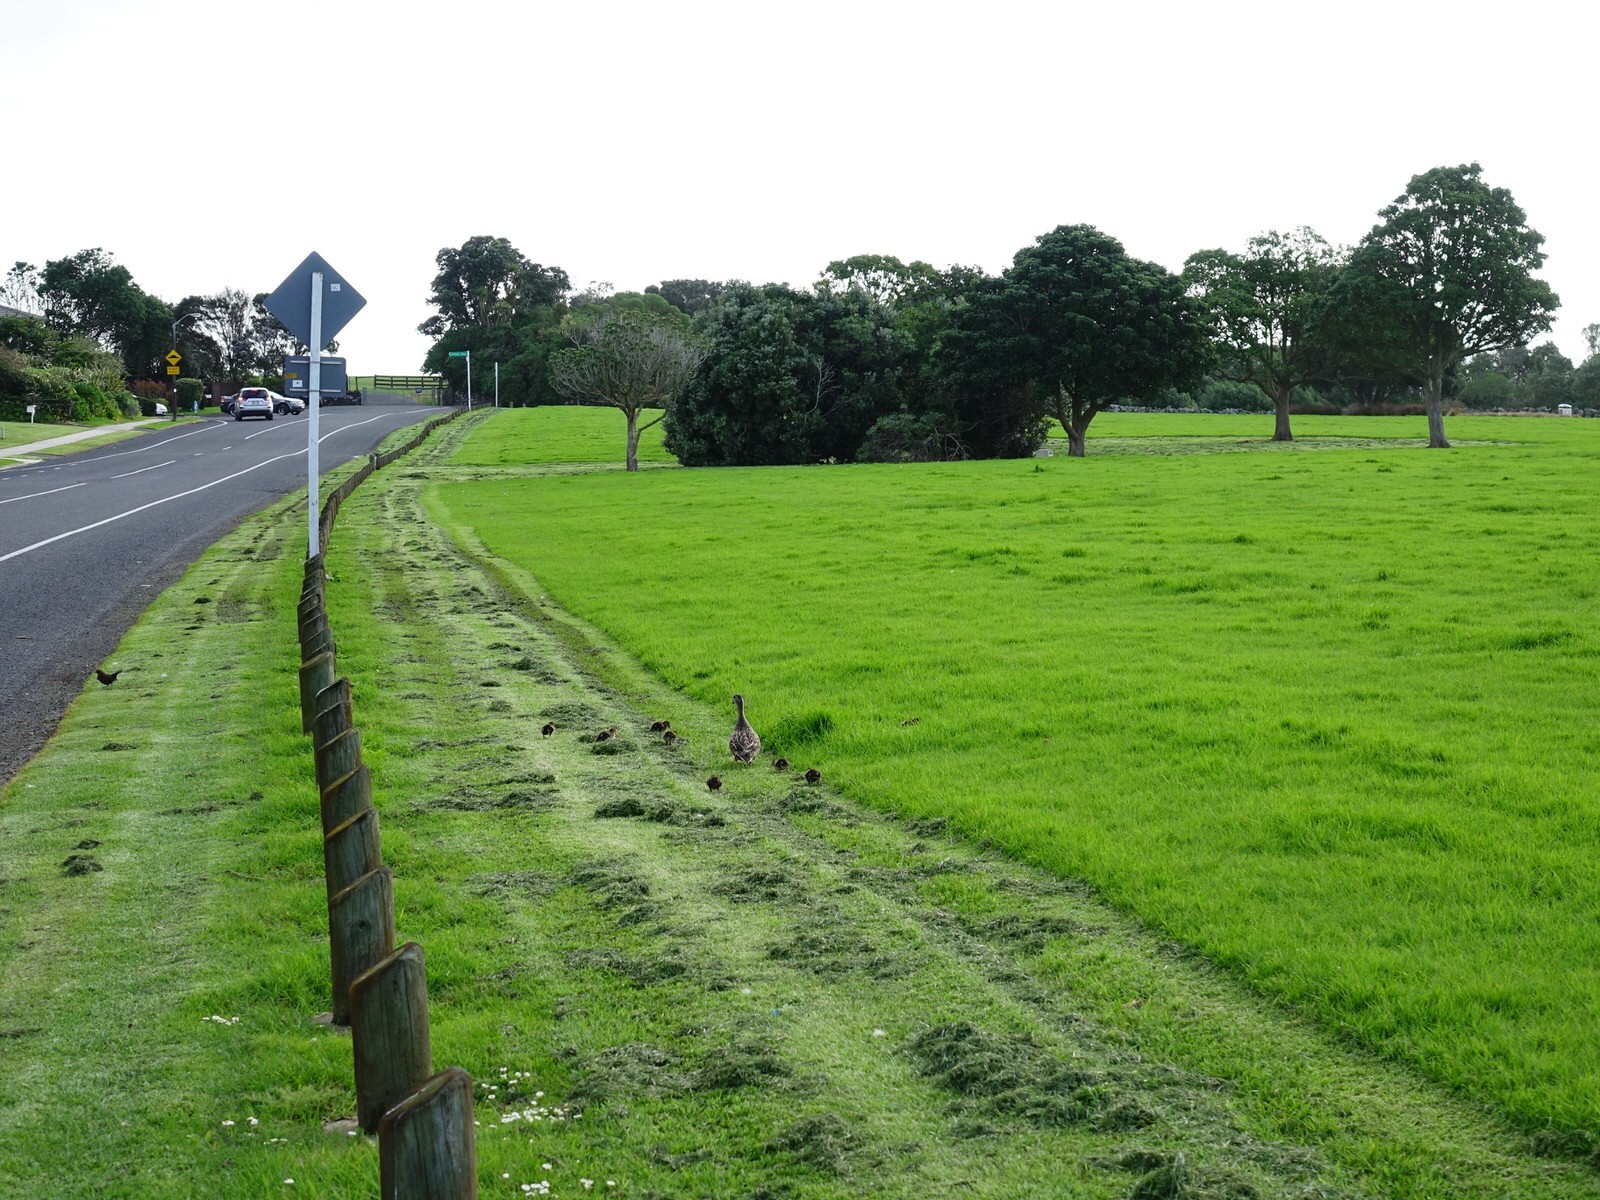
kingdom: Animalia
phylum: Chordata
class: Aves
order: Anseriformes
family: Anatidae
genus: Anas
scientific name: Anas
